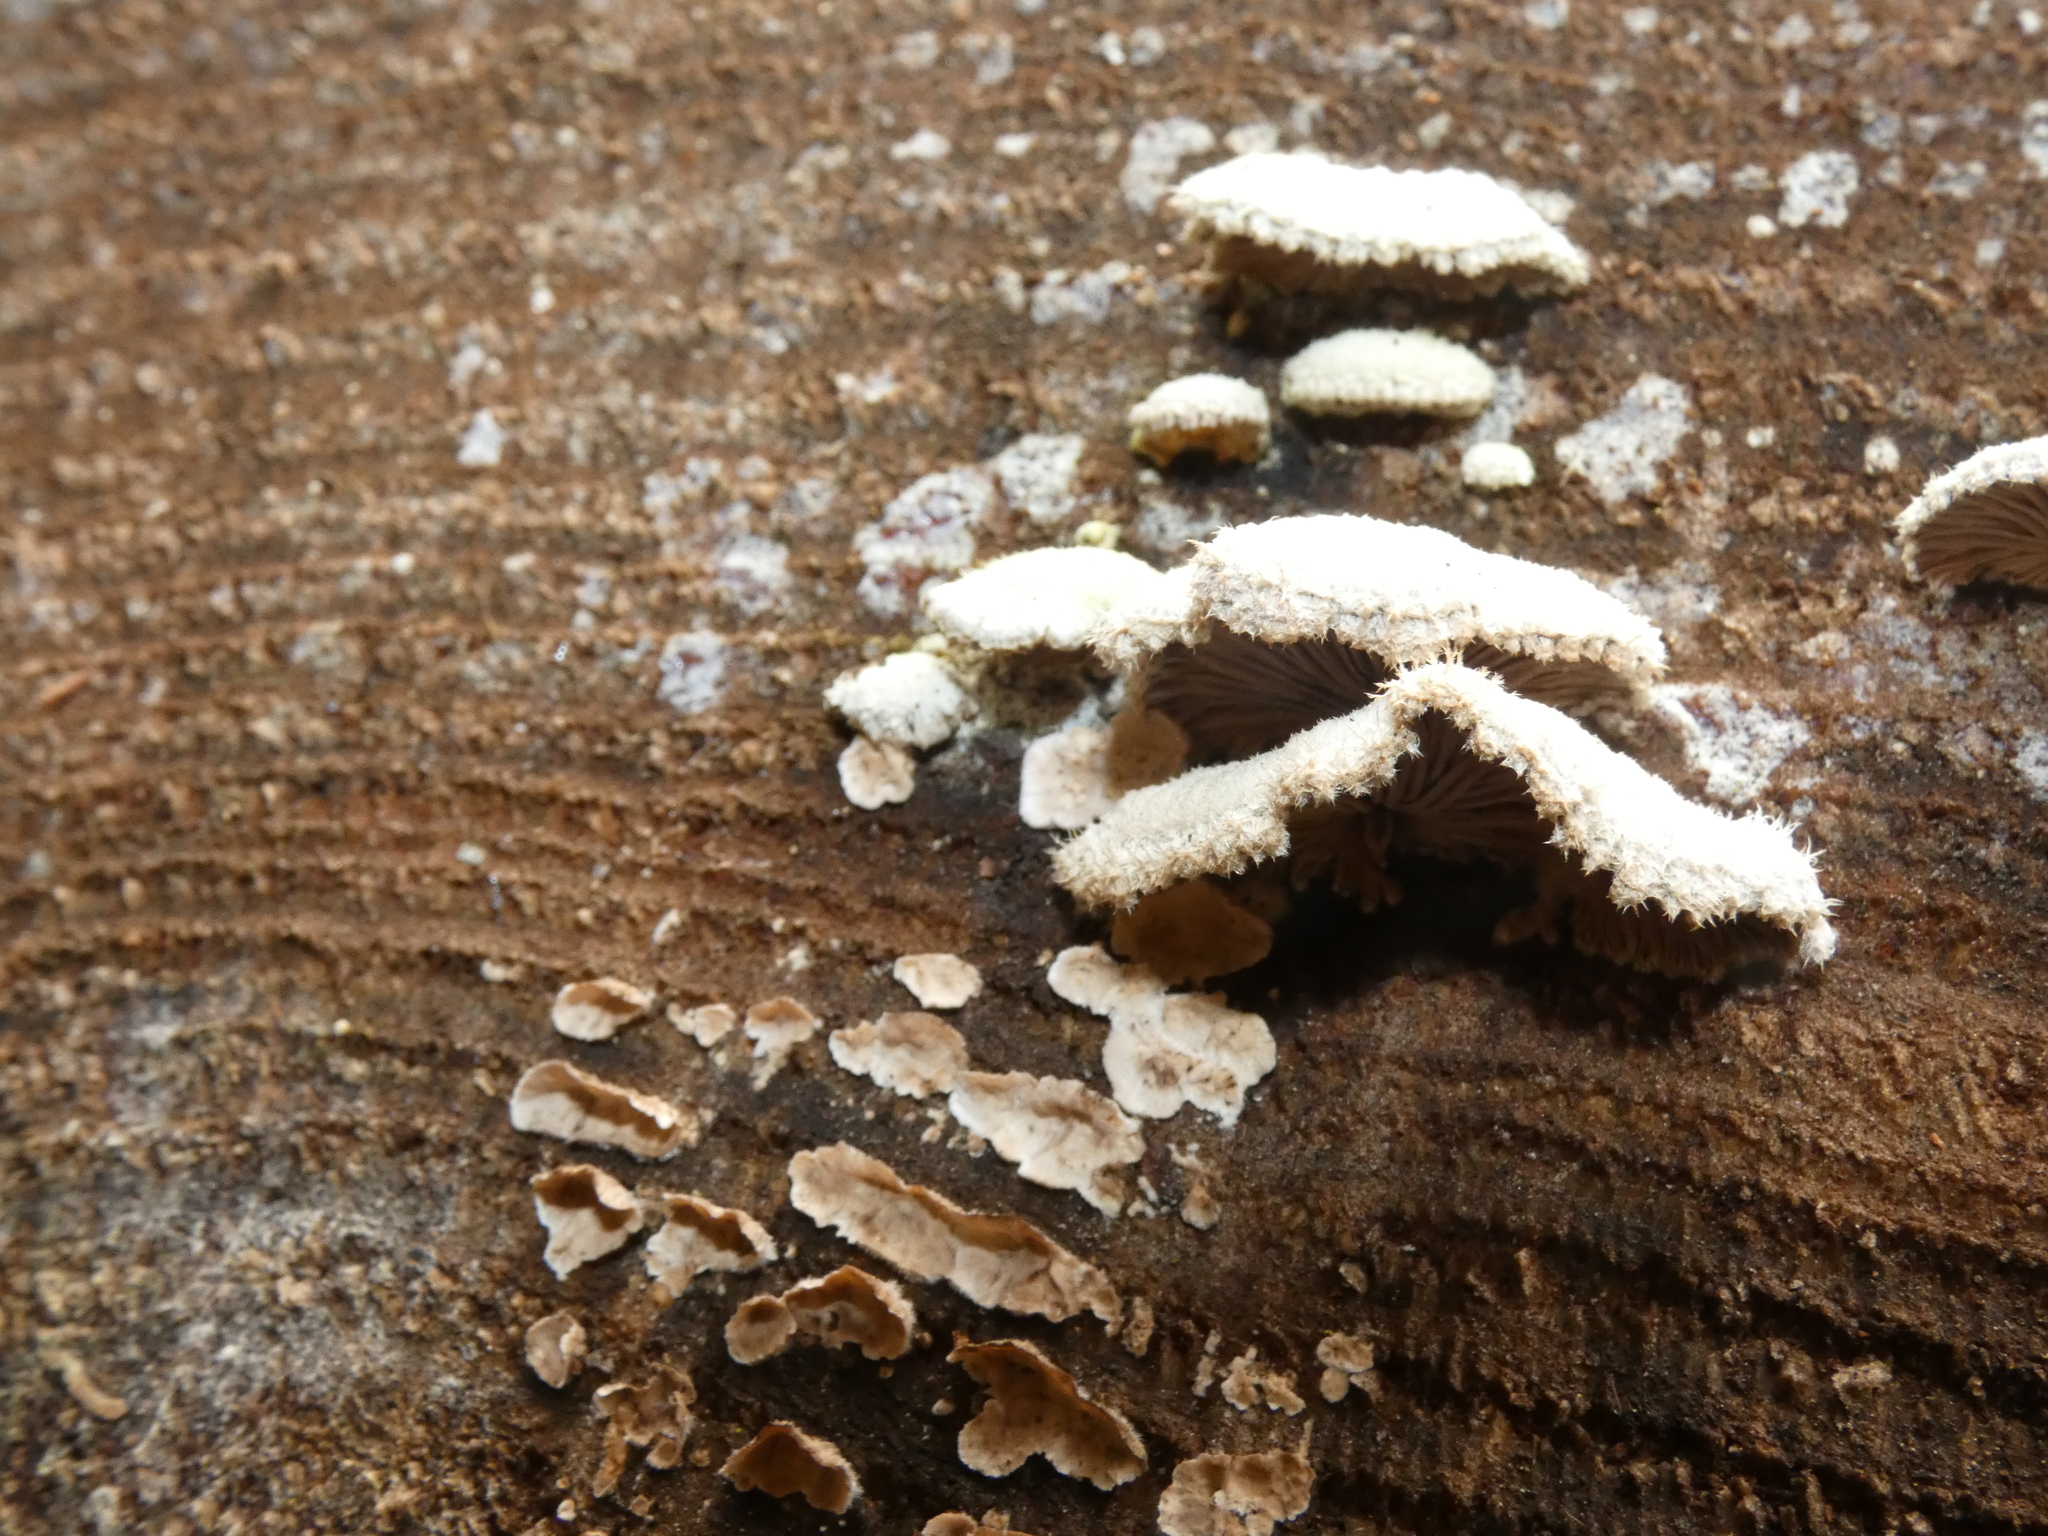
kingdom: Fungi
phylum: Basidiomycota
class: Agaricomycetes
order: Agaricales
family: Schizophyllaceae
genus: Schizophyllum
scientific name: Schizophyllum commune
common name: Common porecrust
